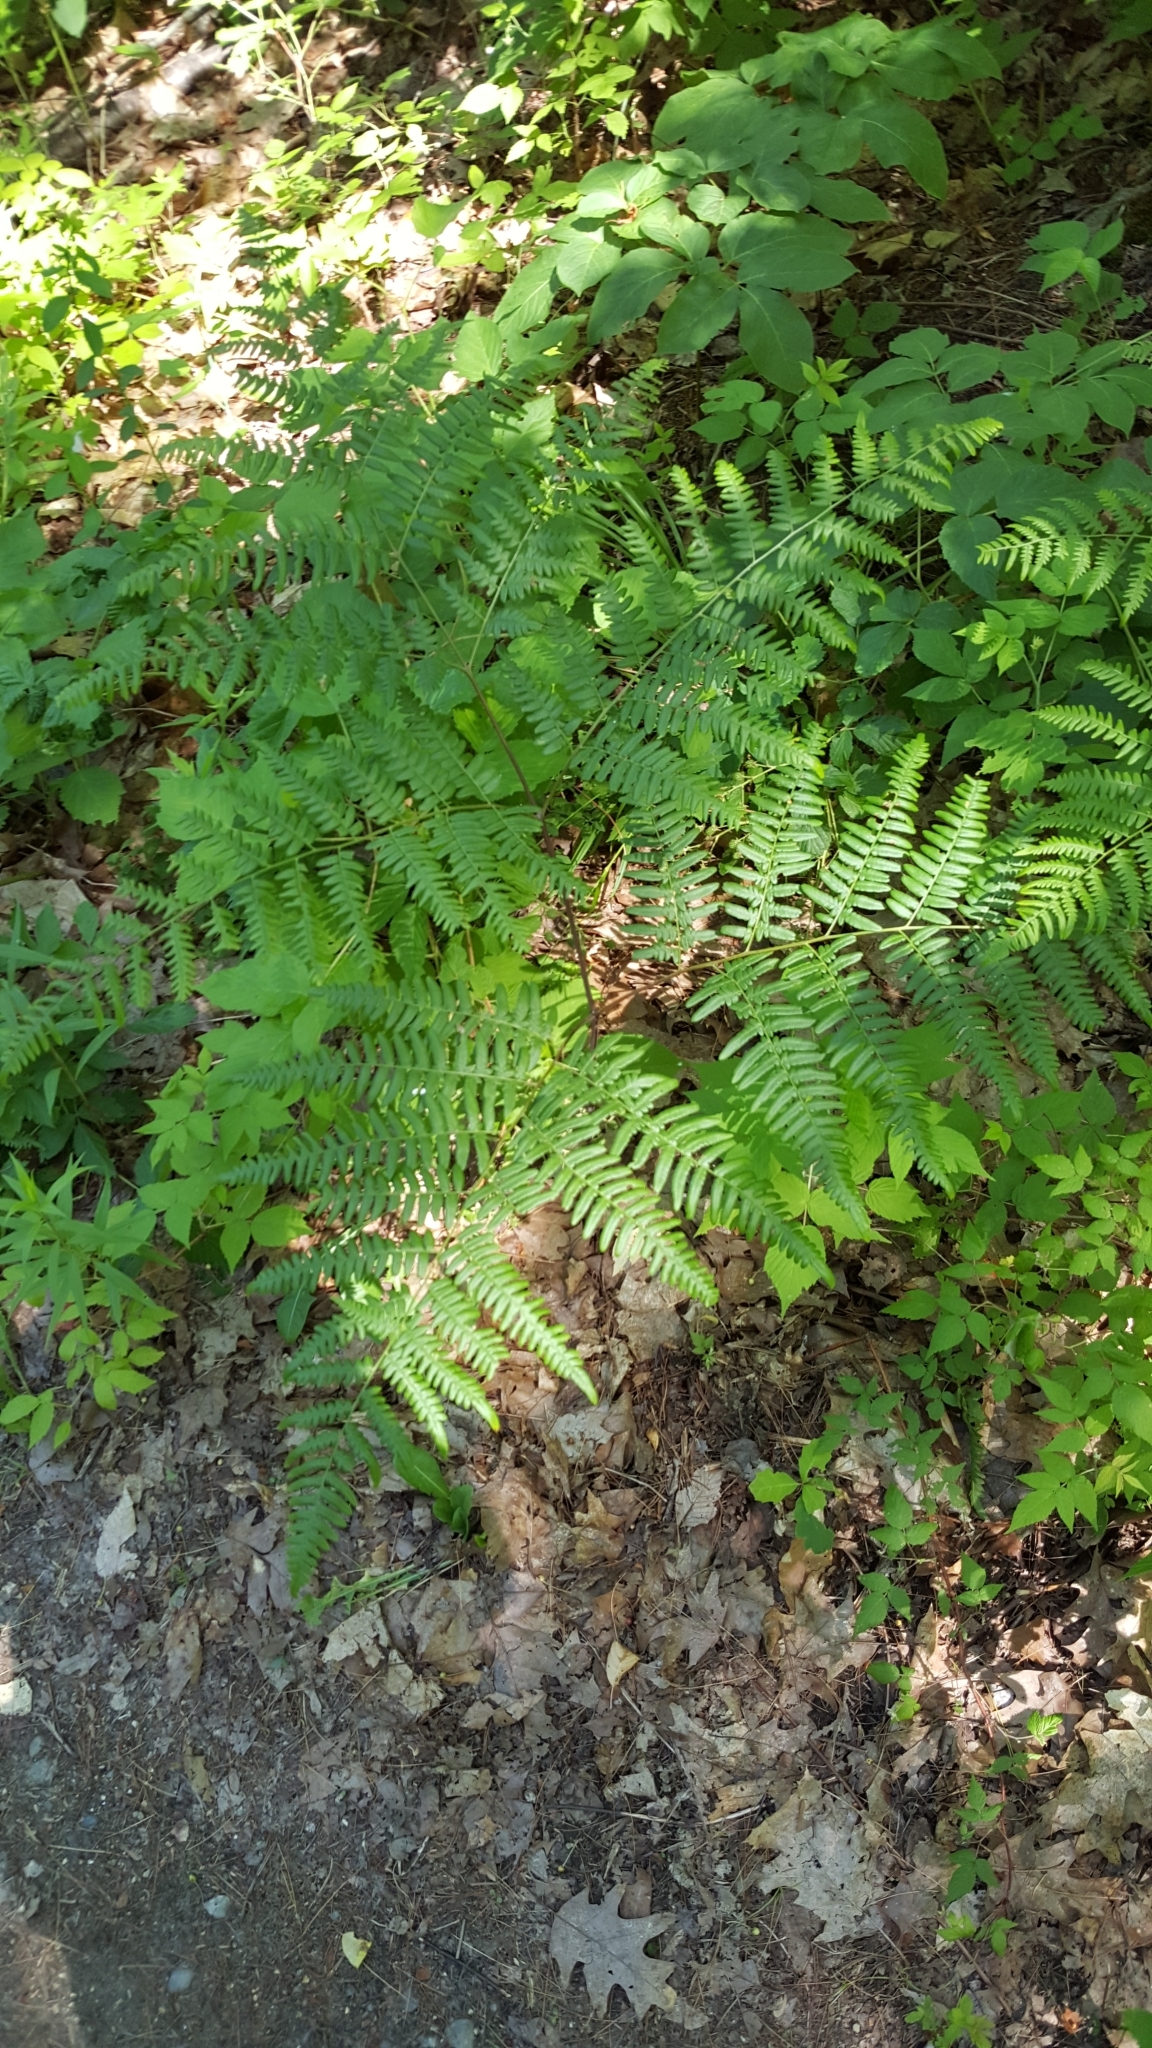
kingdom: Plantae
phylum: Tracheophyta
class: Polypodiopsida
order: Polypodiales
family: Dennstaedtiaceae
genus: Pteridium
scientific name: Pteridium aquilinum
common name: Bracken
